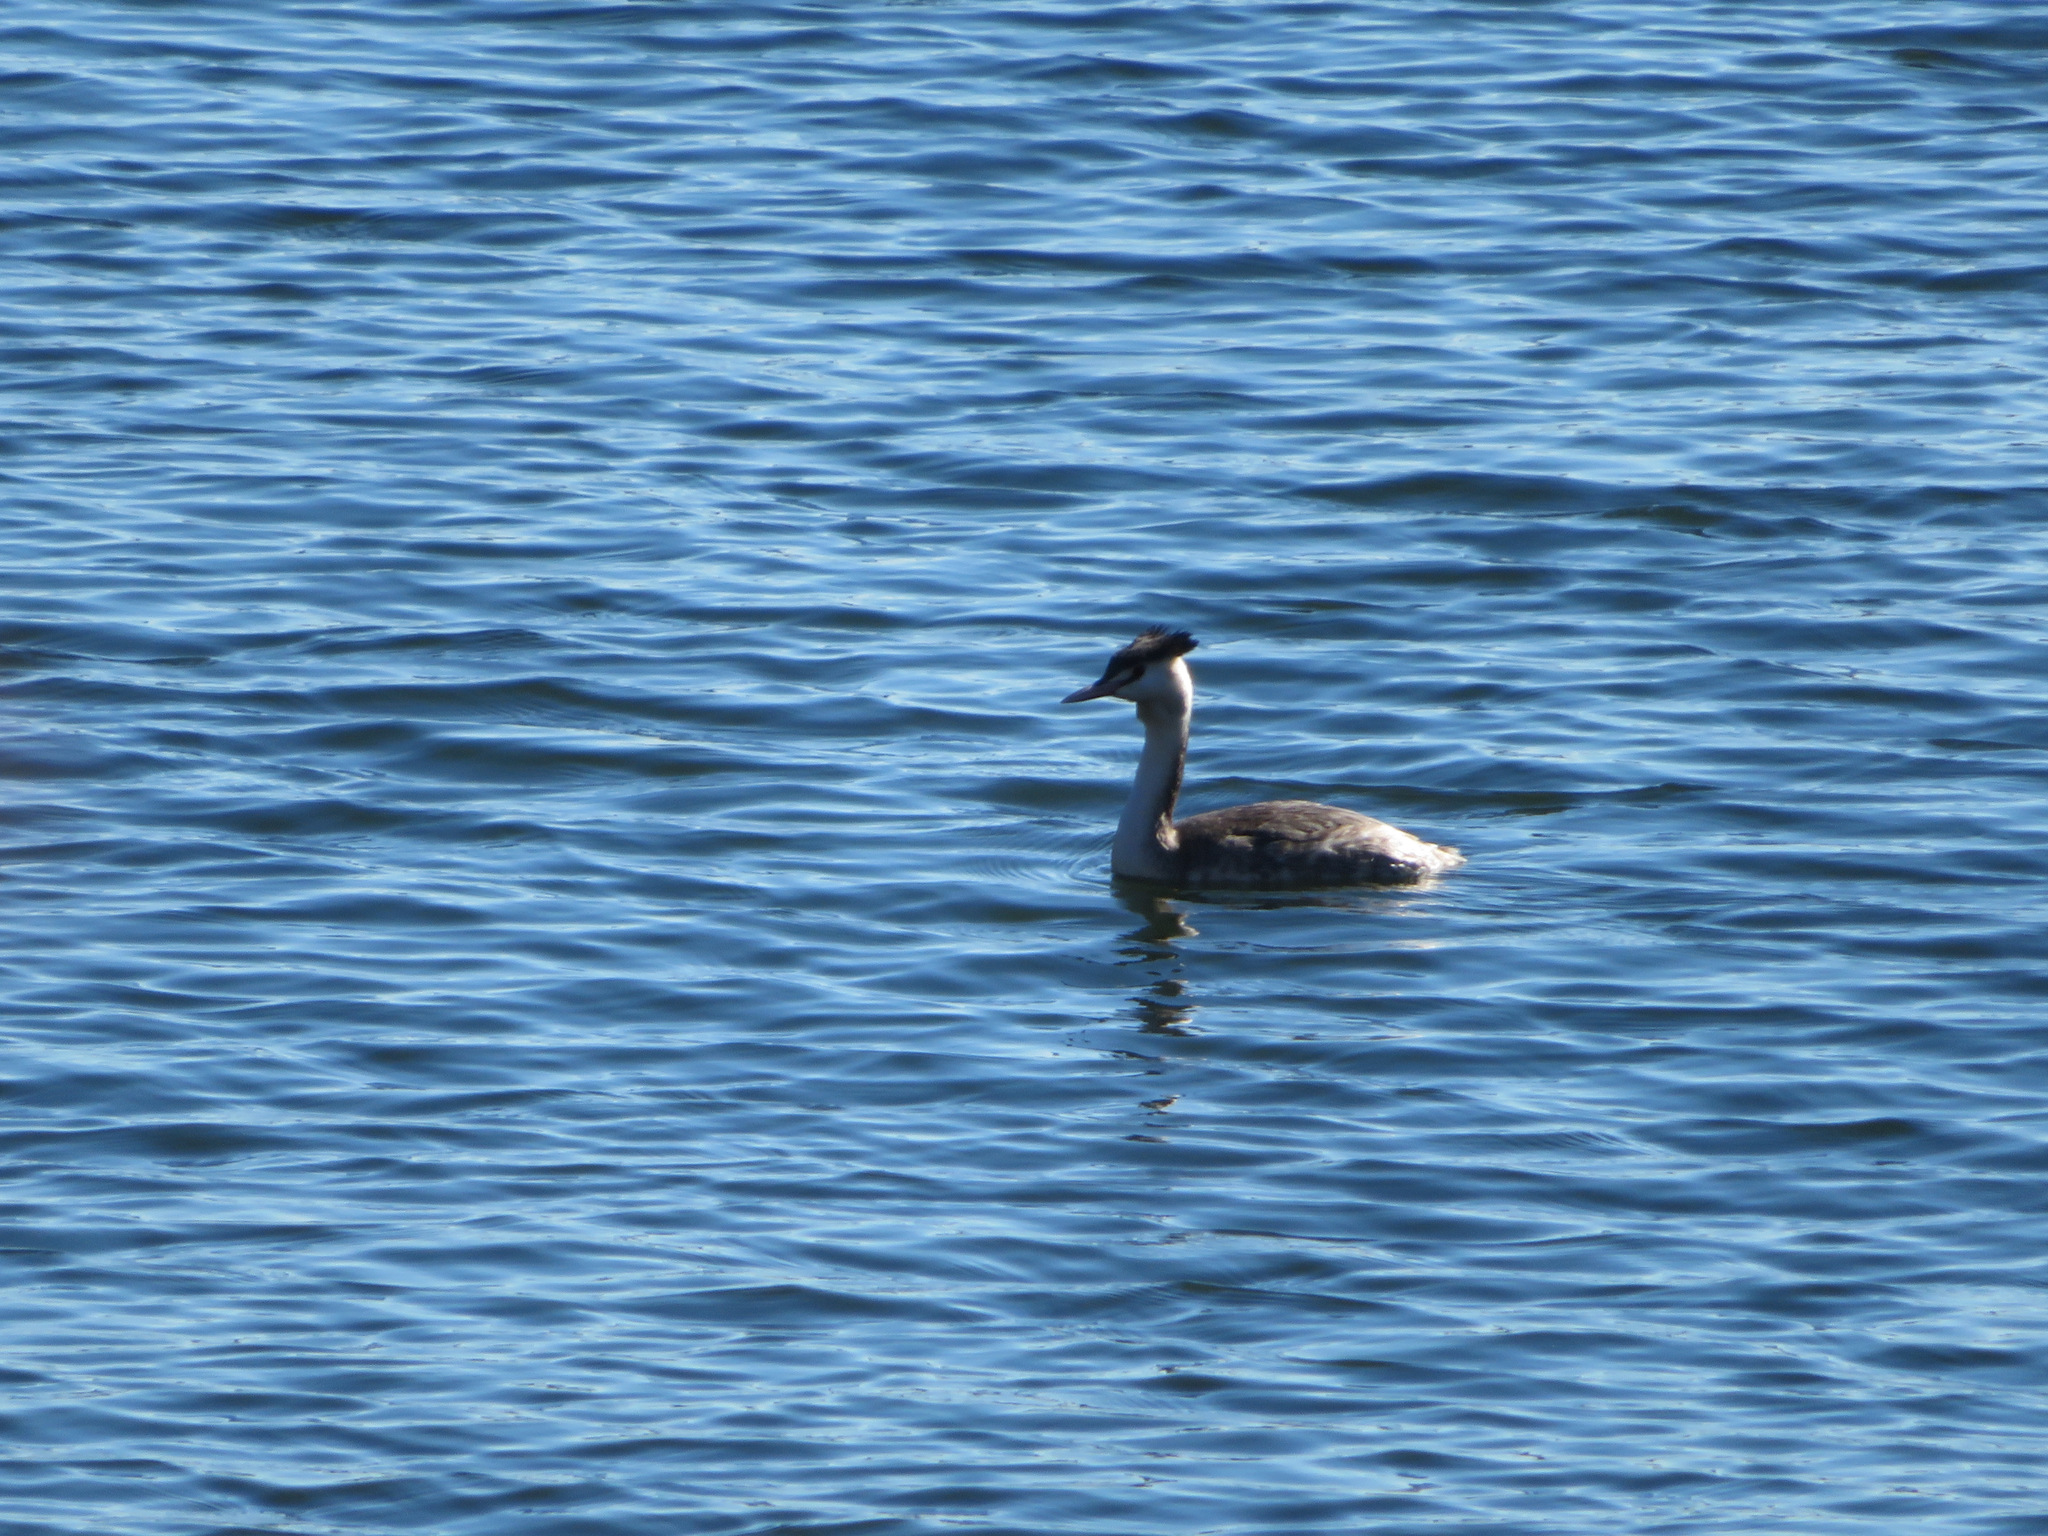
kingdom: Animalia
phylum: Chordata
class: Aves
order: Podicipediformes
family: Podicipedidae
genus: Podiceps
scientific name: Podiceps cristatus
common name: Great crested grebe
